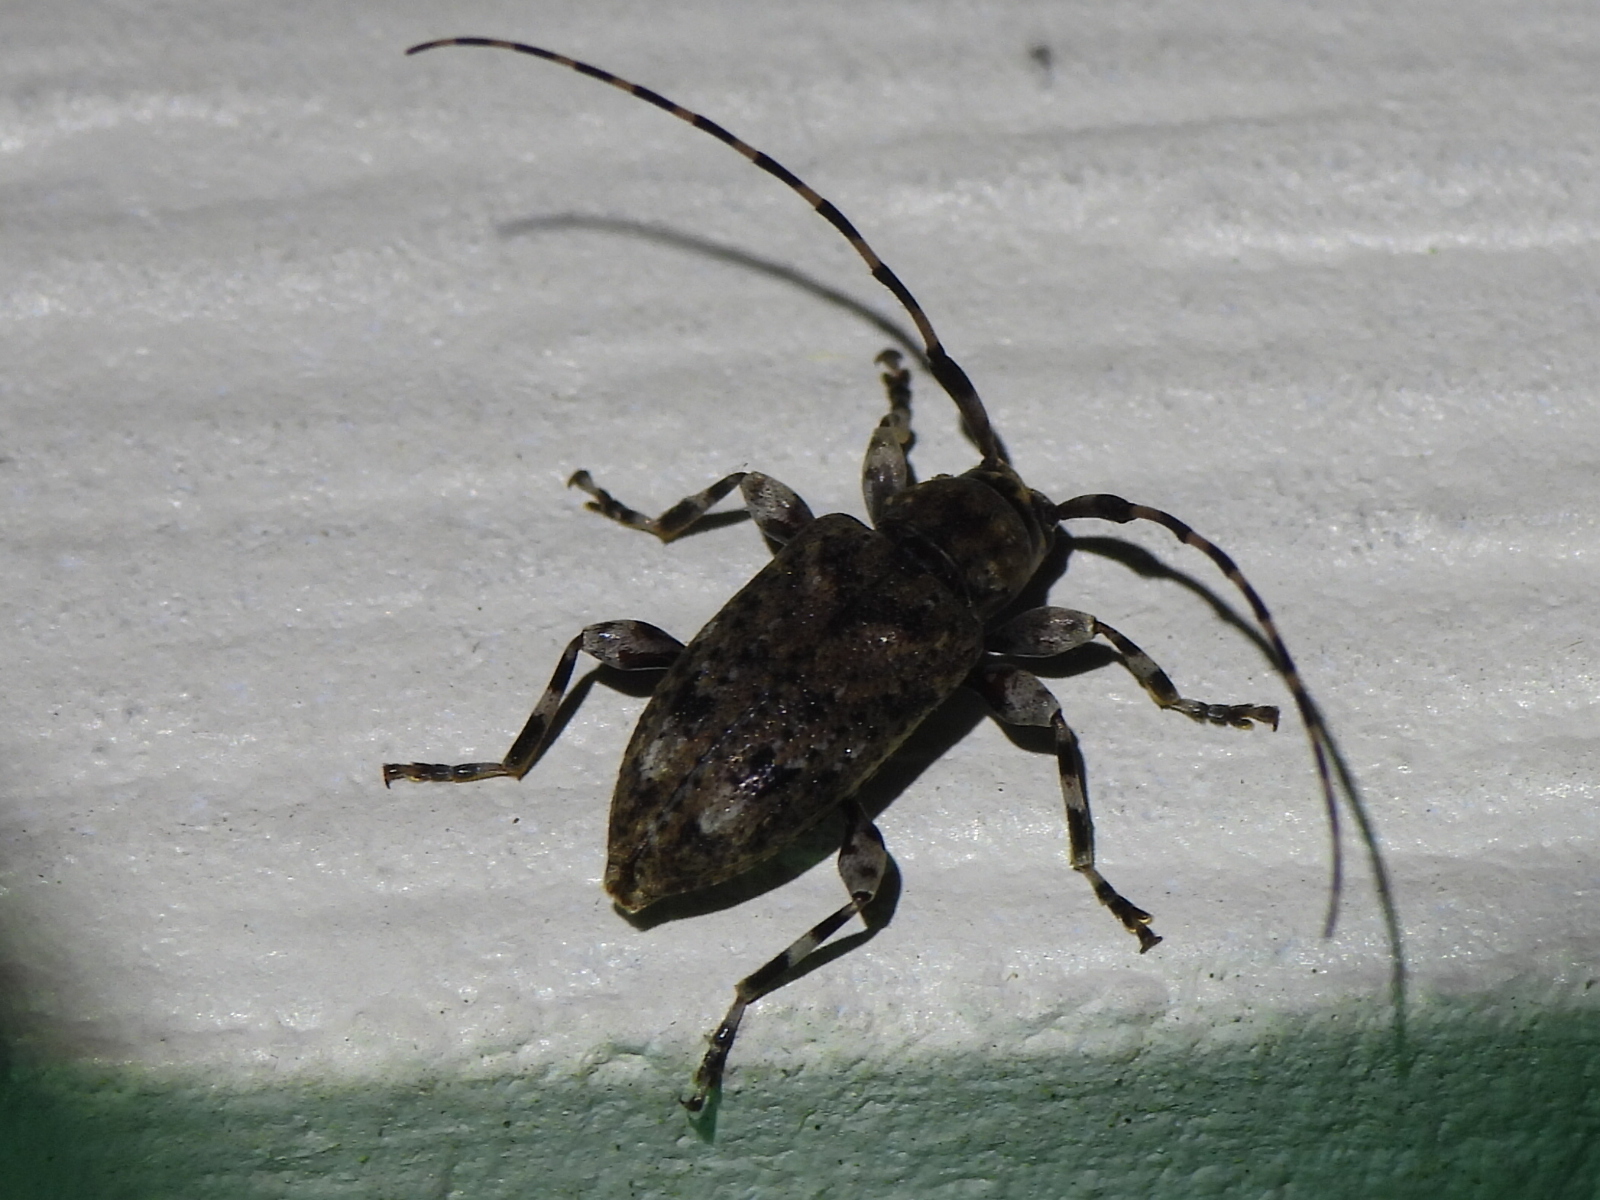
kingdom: Animalia
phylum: Arthropoda
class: Insecta
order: Coleoptera
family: Cerambycidae
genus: Astyleiopus
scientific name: Astyleiopus variegatus
